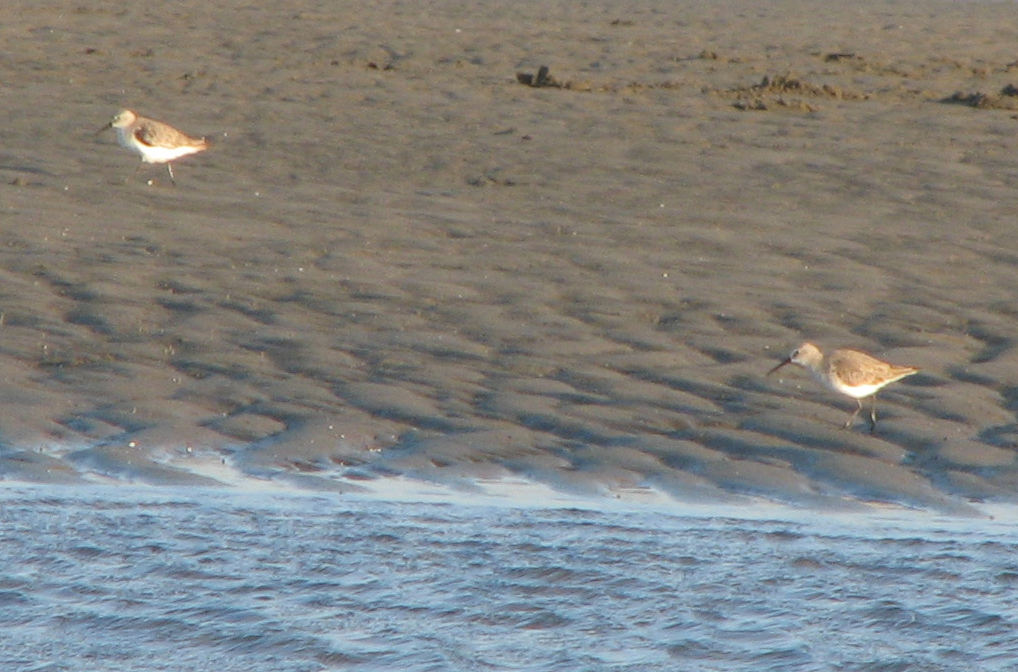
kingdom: Animalia
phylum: Chordata
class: Aves
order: Charadriiformes
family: Scolopacidae
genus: Calidris
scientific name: Calidris ferruginea
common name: Curlew sandpiper
